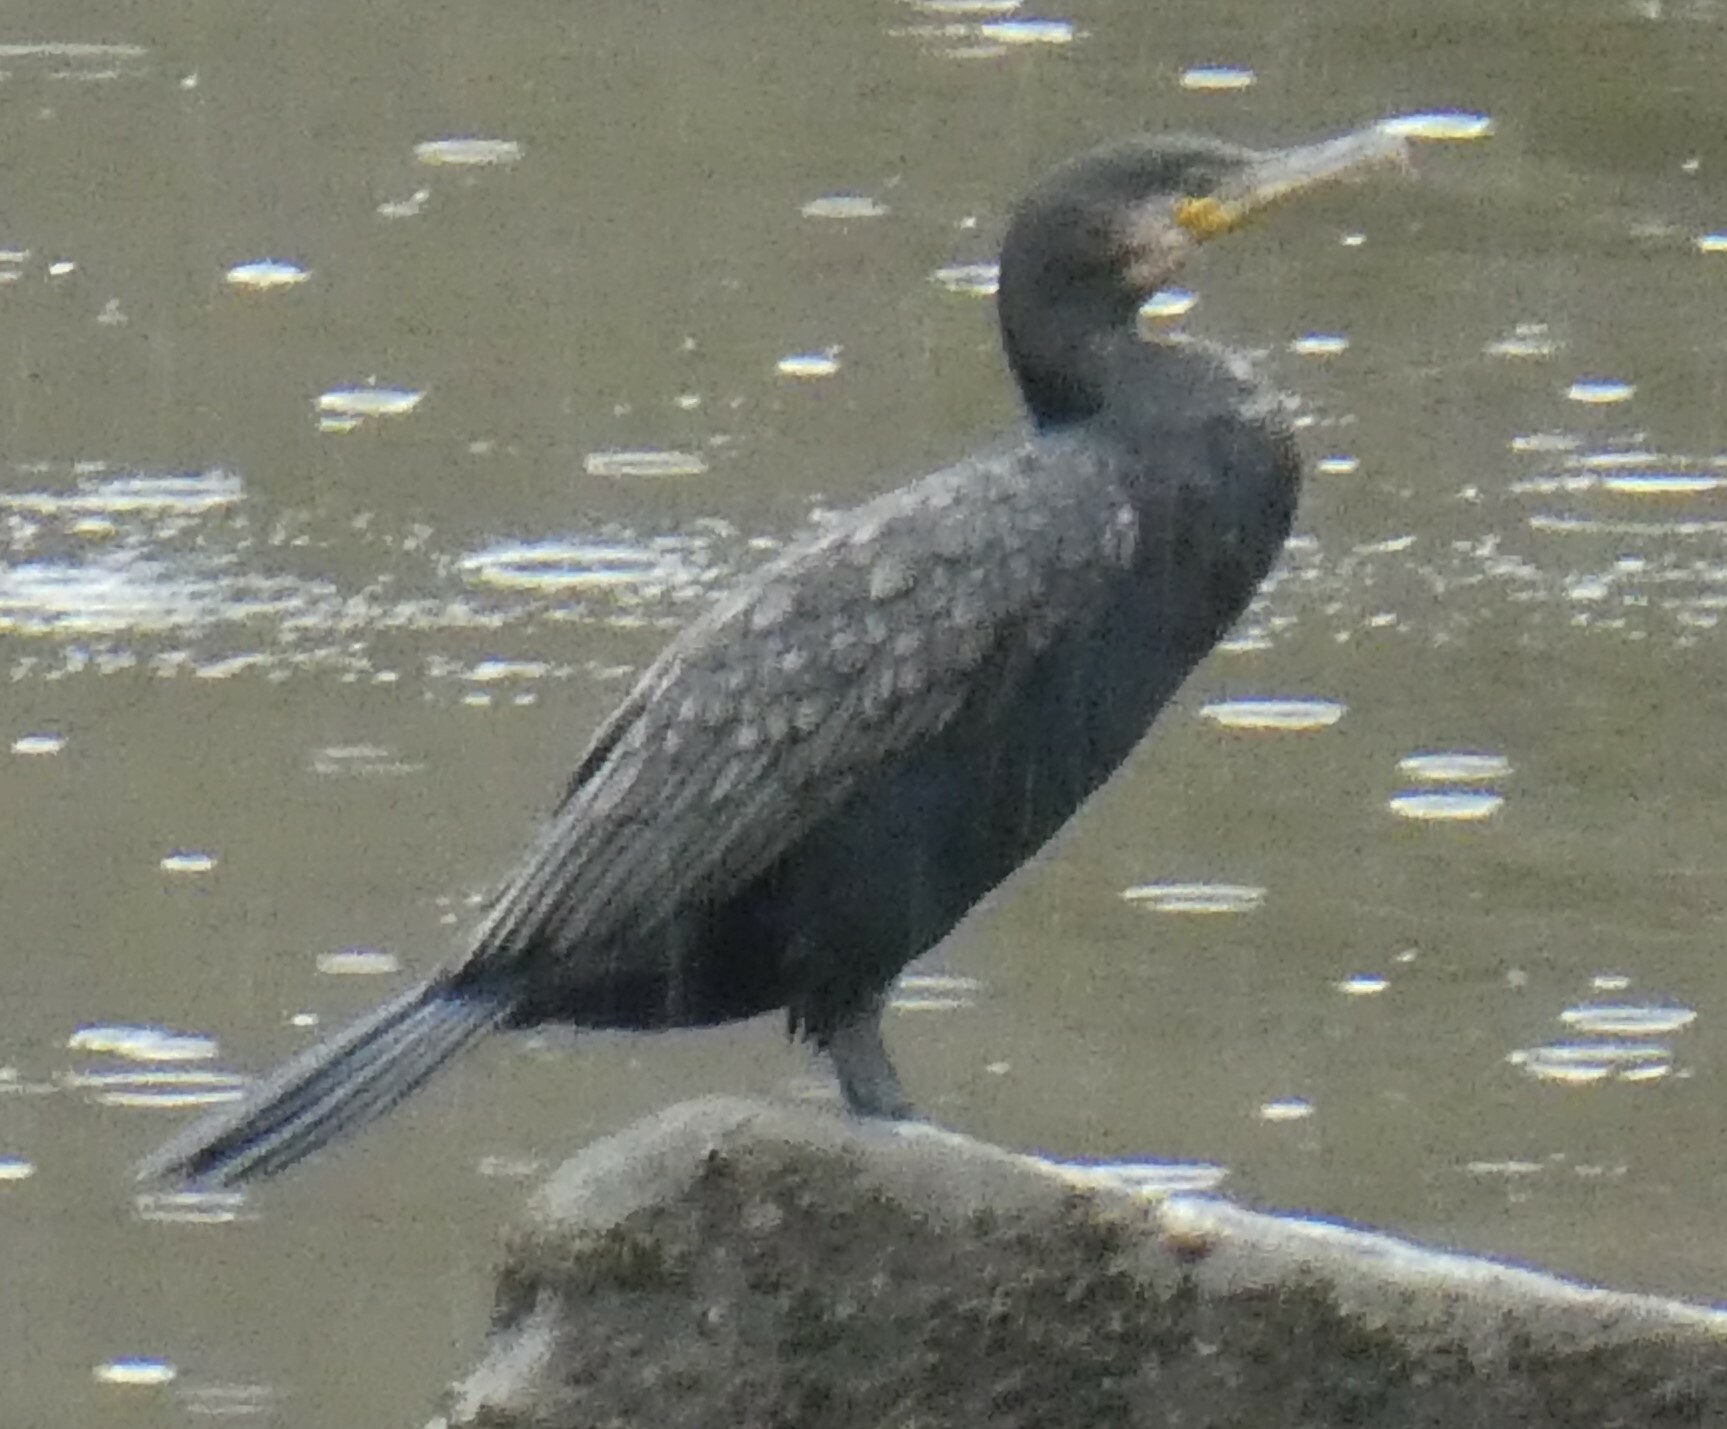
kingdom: Animalia
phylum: Chordata
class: Aves
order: Suliformes
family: Phalacrocoracidae
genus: Phalacrocorax
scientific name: Phalacrocorax carbo
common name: Great cormorant
